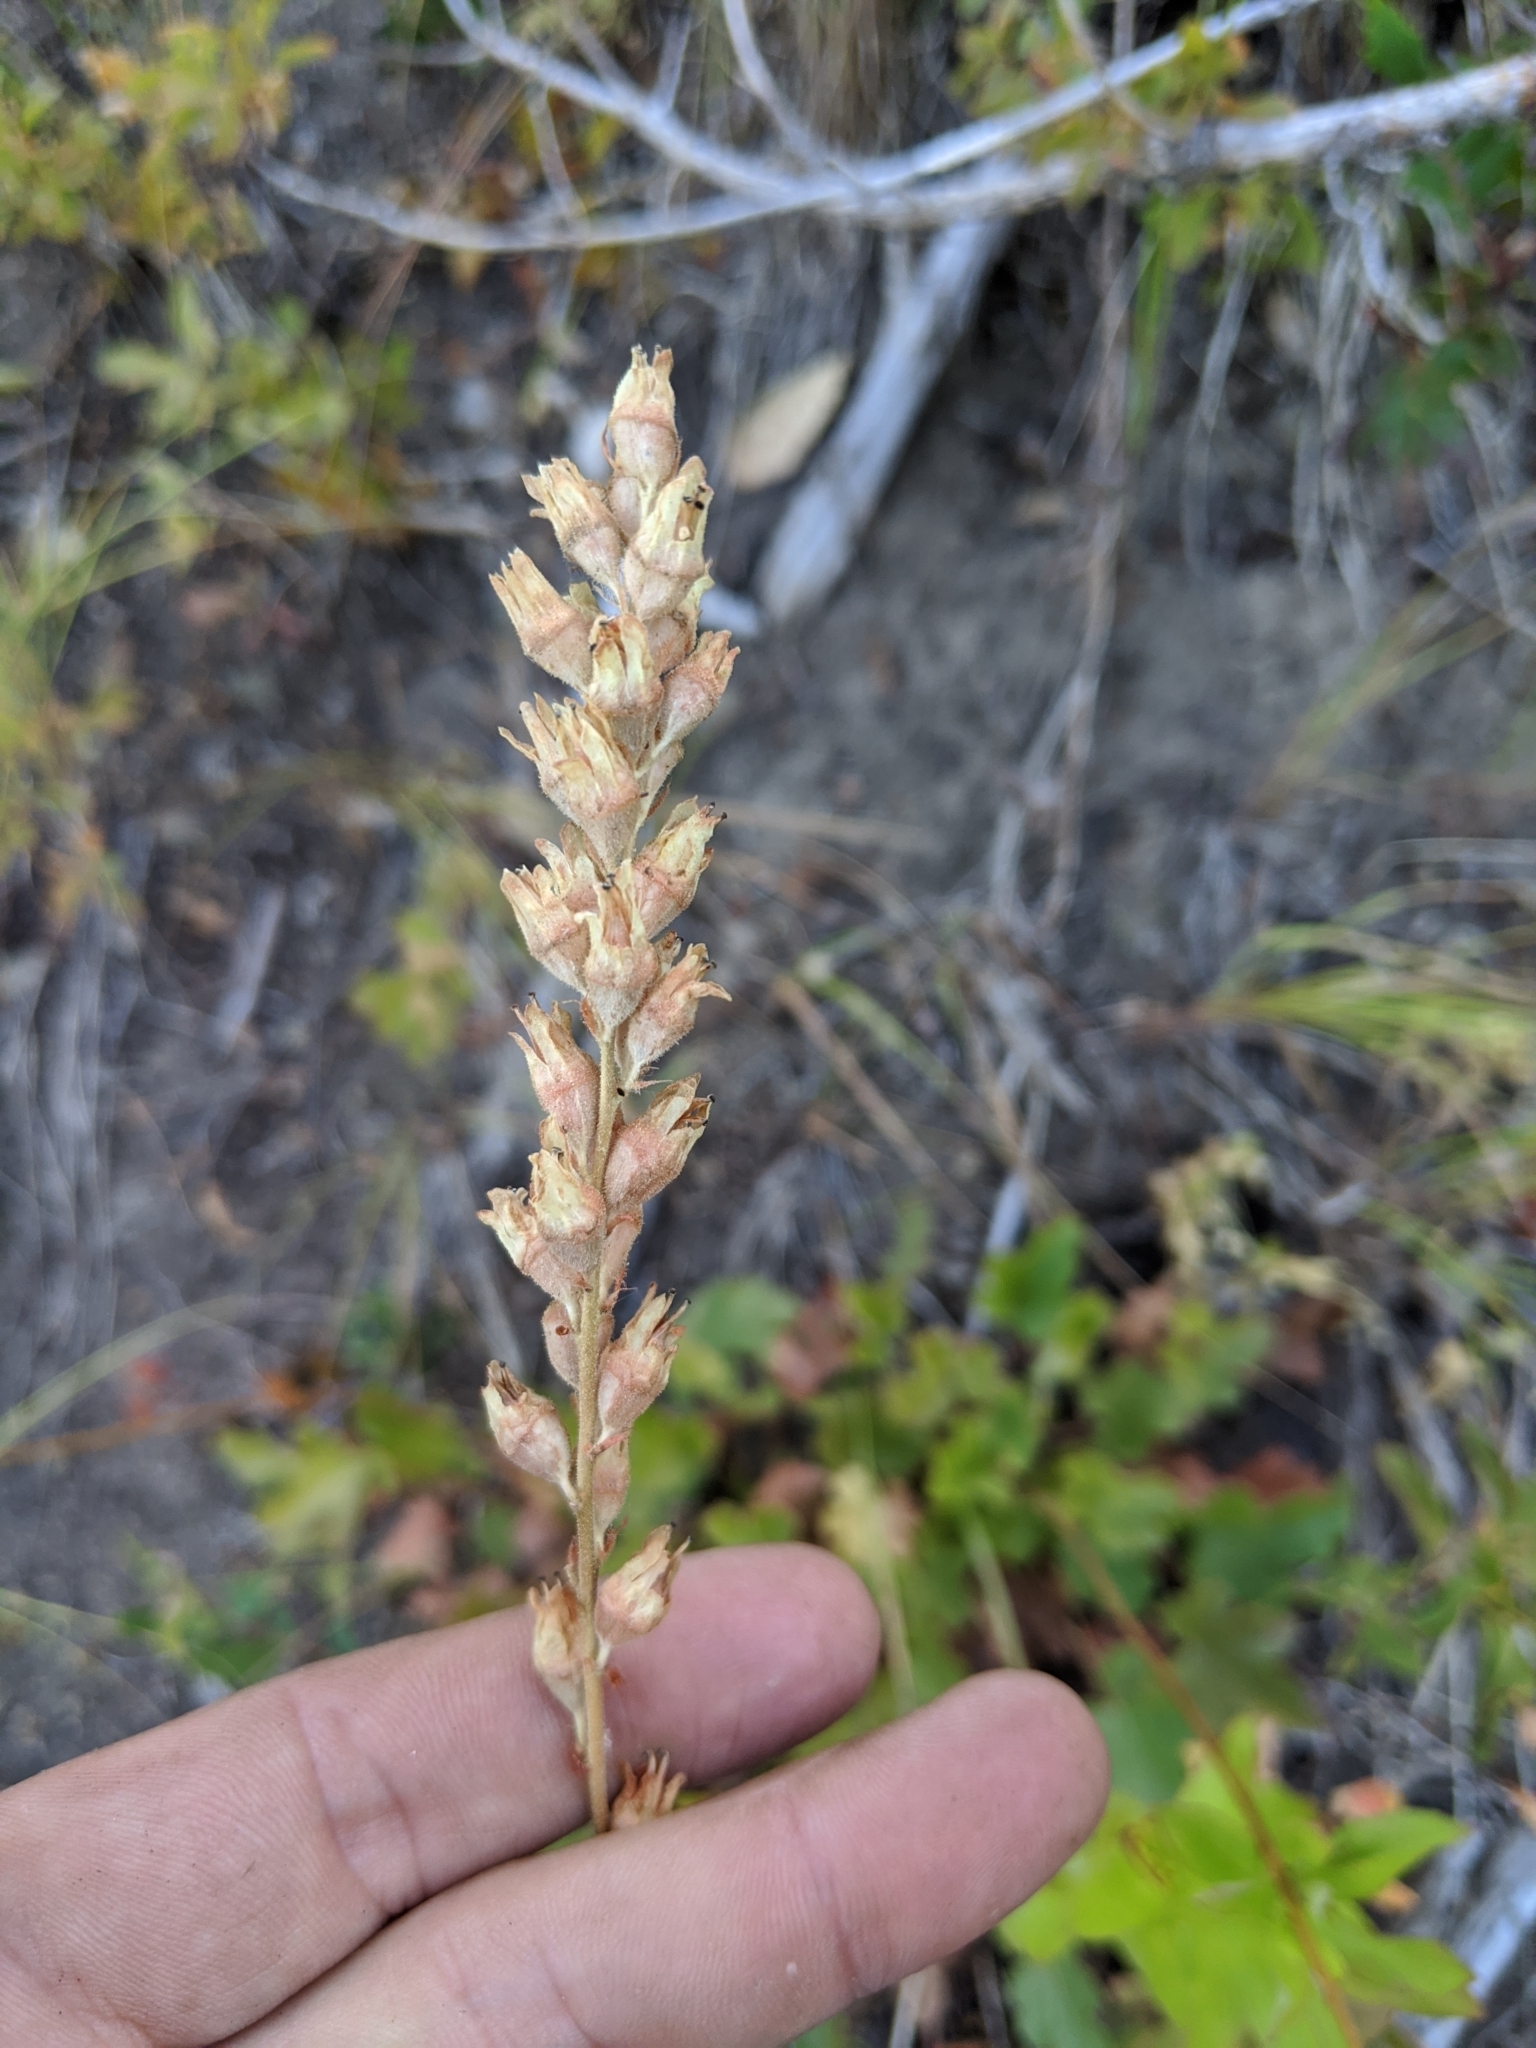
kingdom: Plantae
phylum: Tracheophyta
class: Magnoliopsida
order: Saxifragales
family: Saxifragaceae
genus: Heuchera
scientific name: Heuchera cylindrica
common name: Mat alumroot
